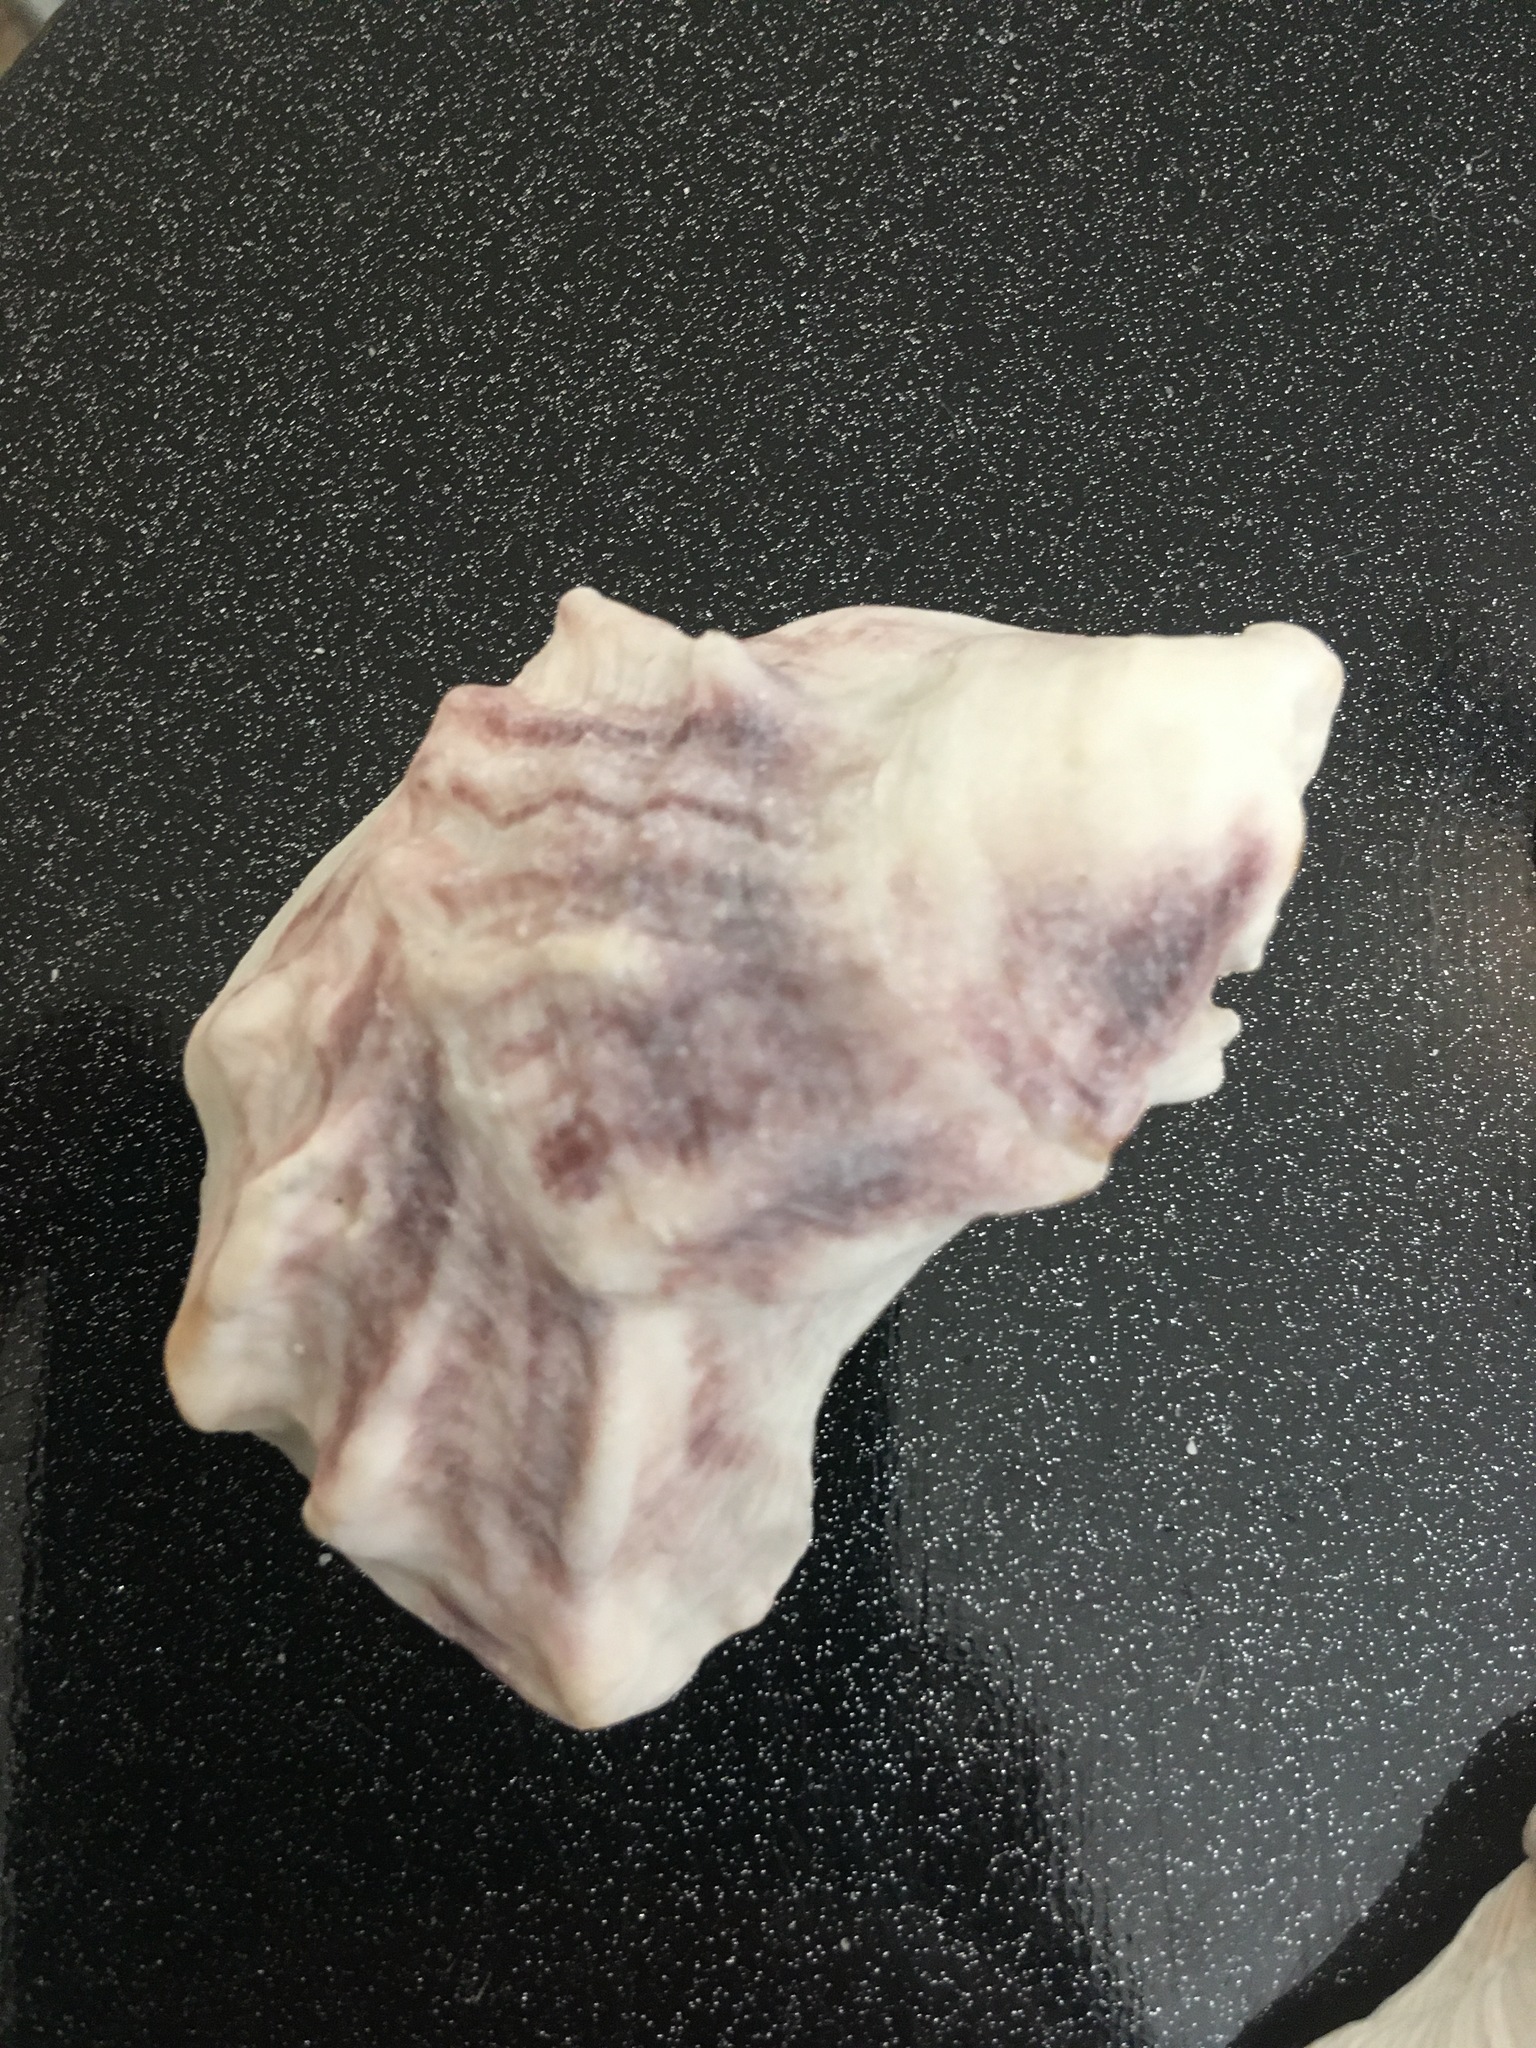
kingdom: Animalia
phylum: Mollusca
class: Bivalvia
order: Ostreida
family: Ostreidae
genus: Crassostrea
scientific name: Crassostrea virginica
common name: American oyster
